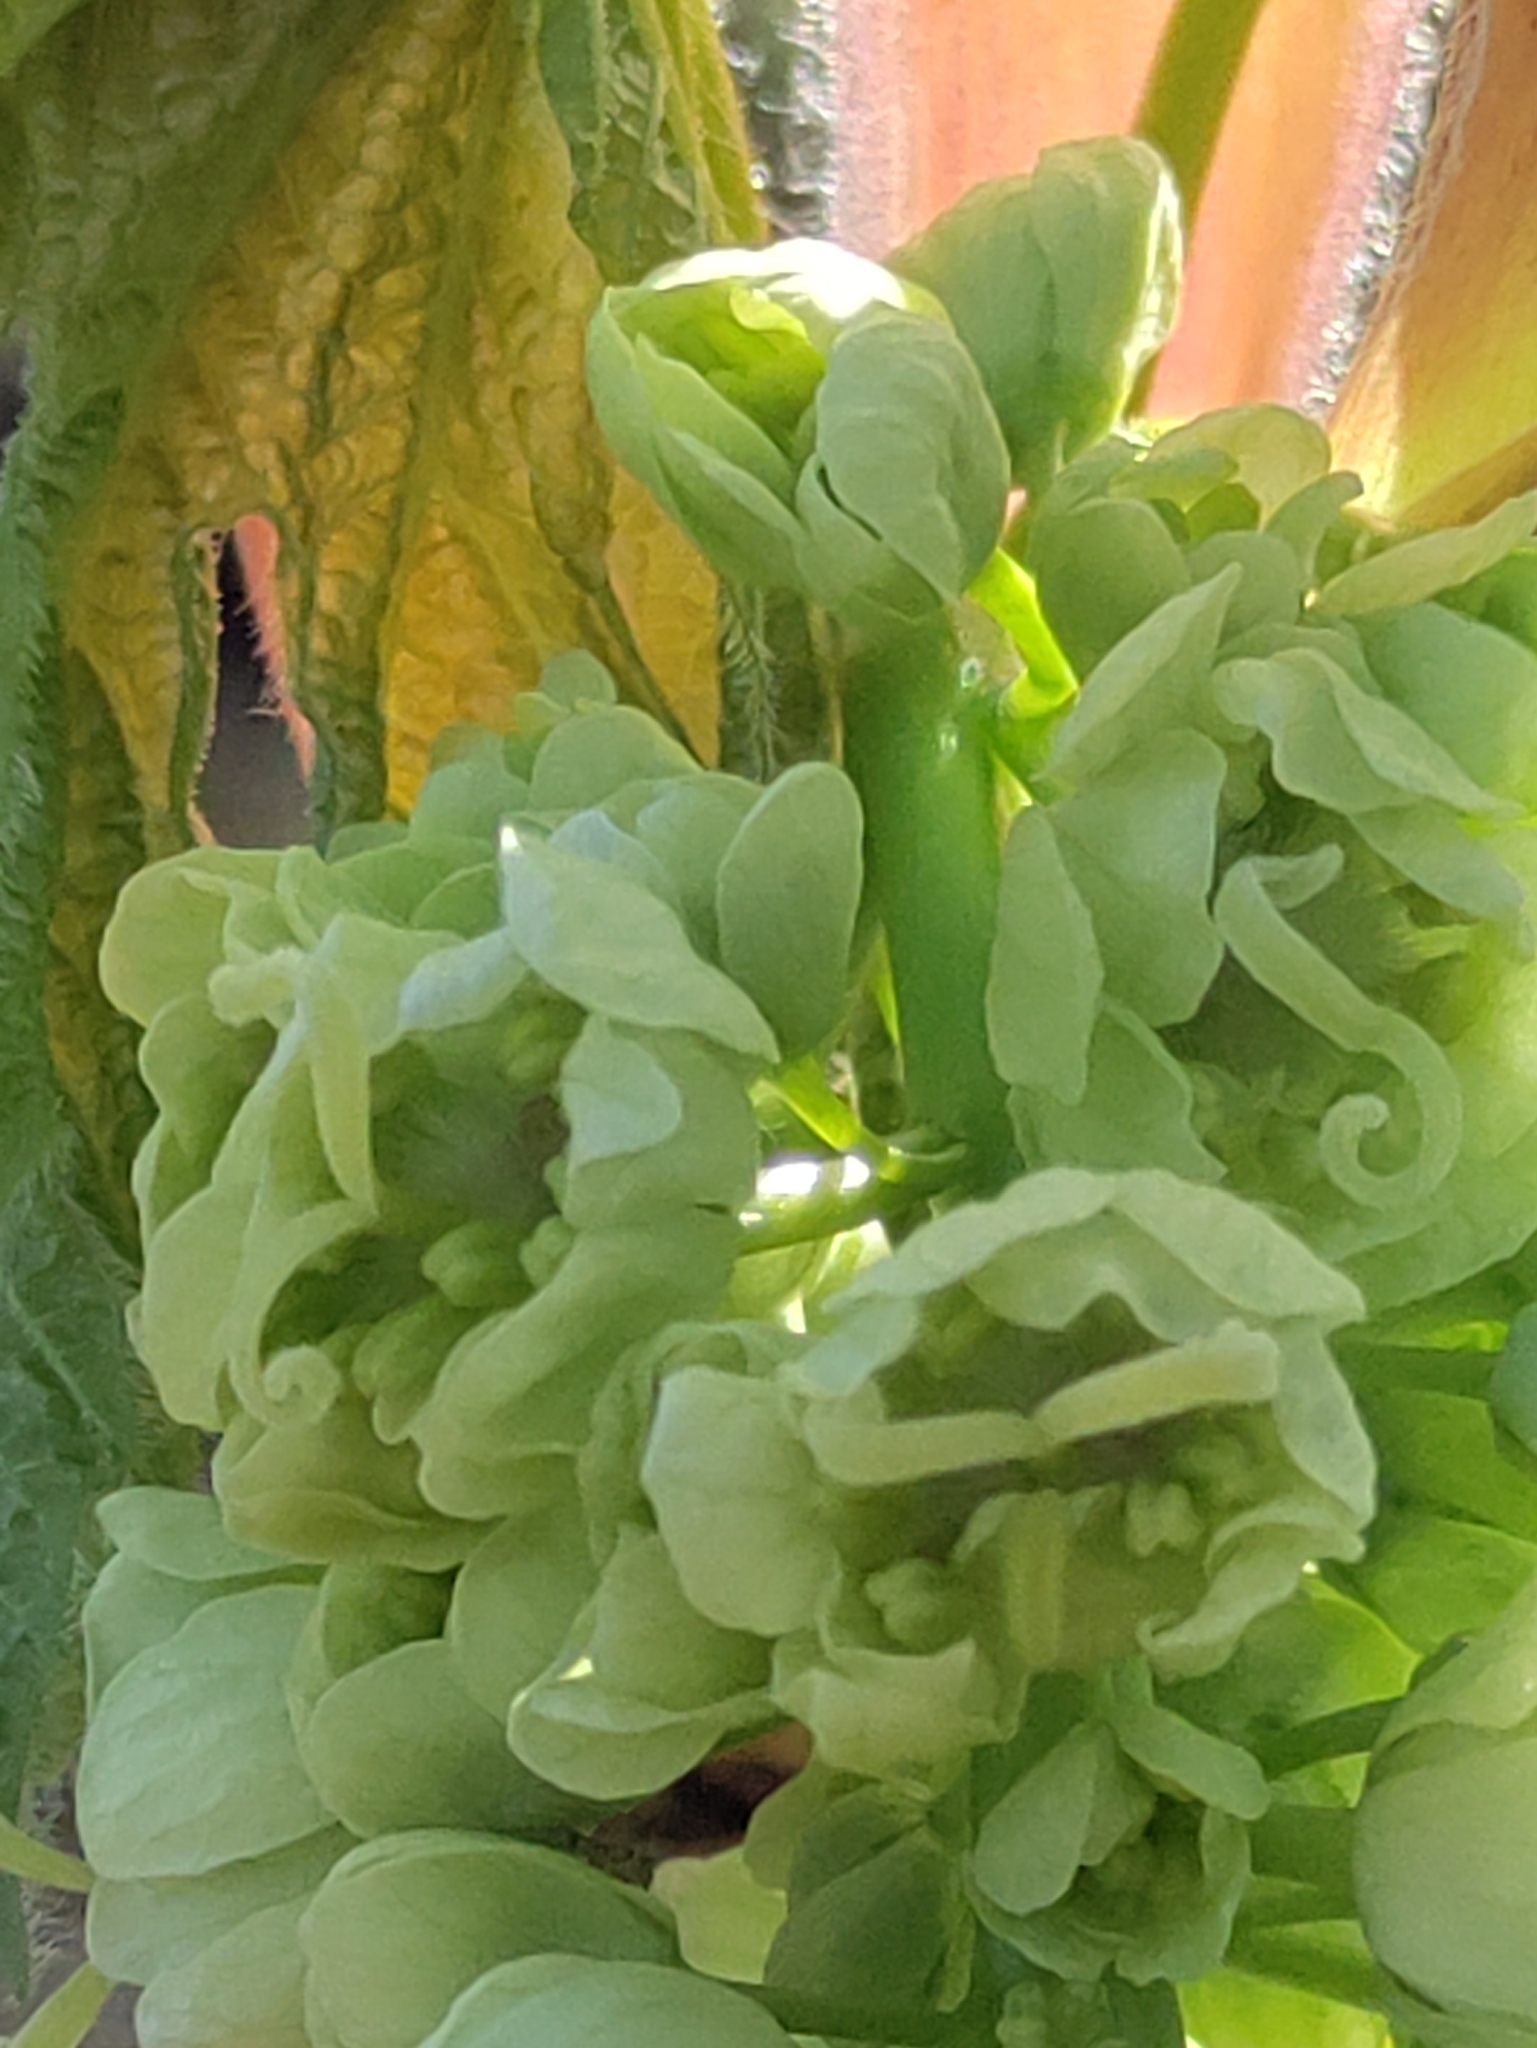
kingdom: Plantae
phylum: Tracheophyta
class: Magnoliopsida
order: Sapindales
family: Sapindaceae
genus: Acer
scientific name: Acer macrophyllum
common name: Oregon maple
